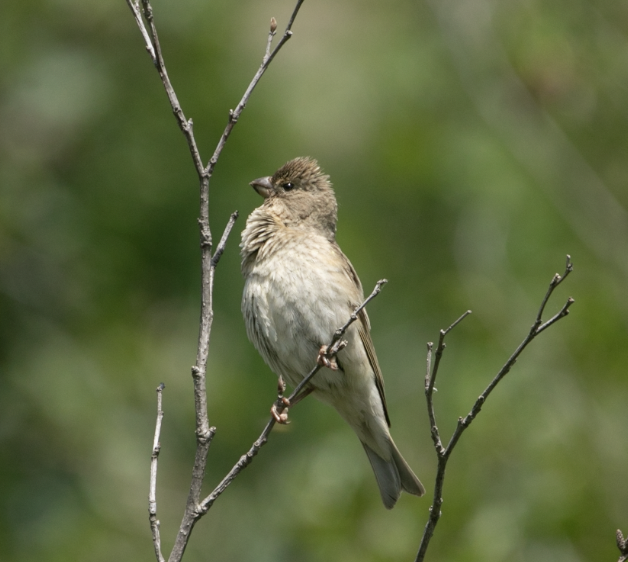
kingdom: Animalia
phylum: Chordata
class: Aves
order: Passeriformes
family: Fringillidae
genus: Carpodacus
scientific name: Carpodacus erythrinus
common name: Common rosefinch
